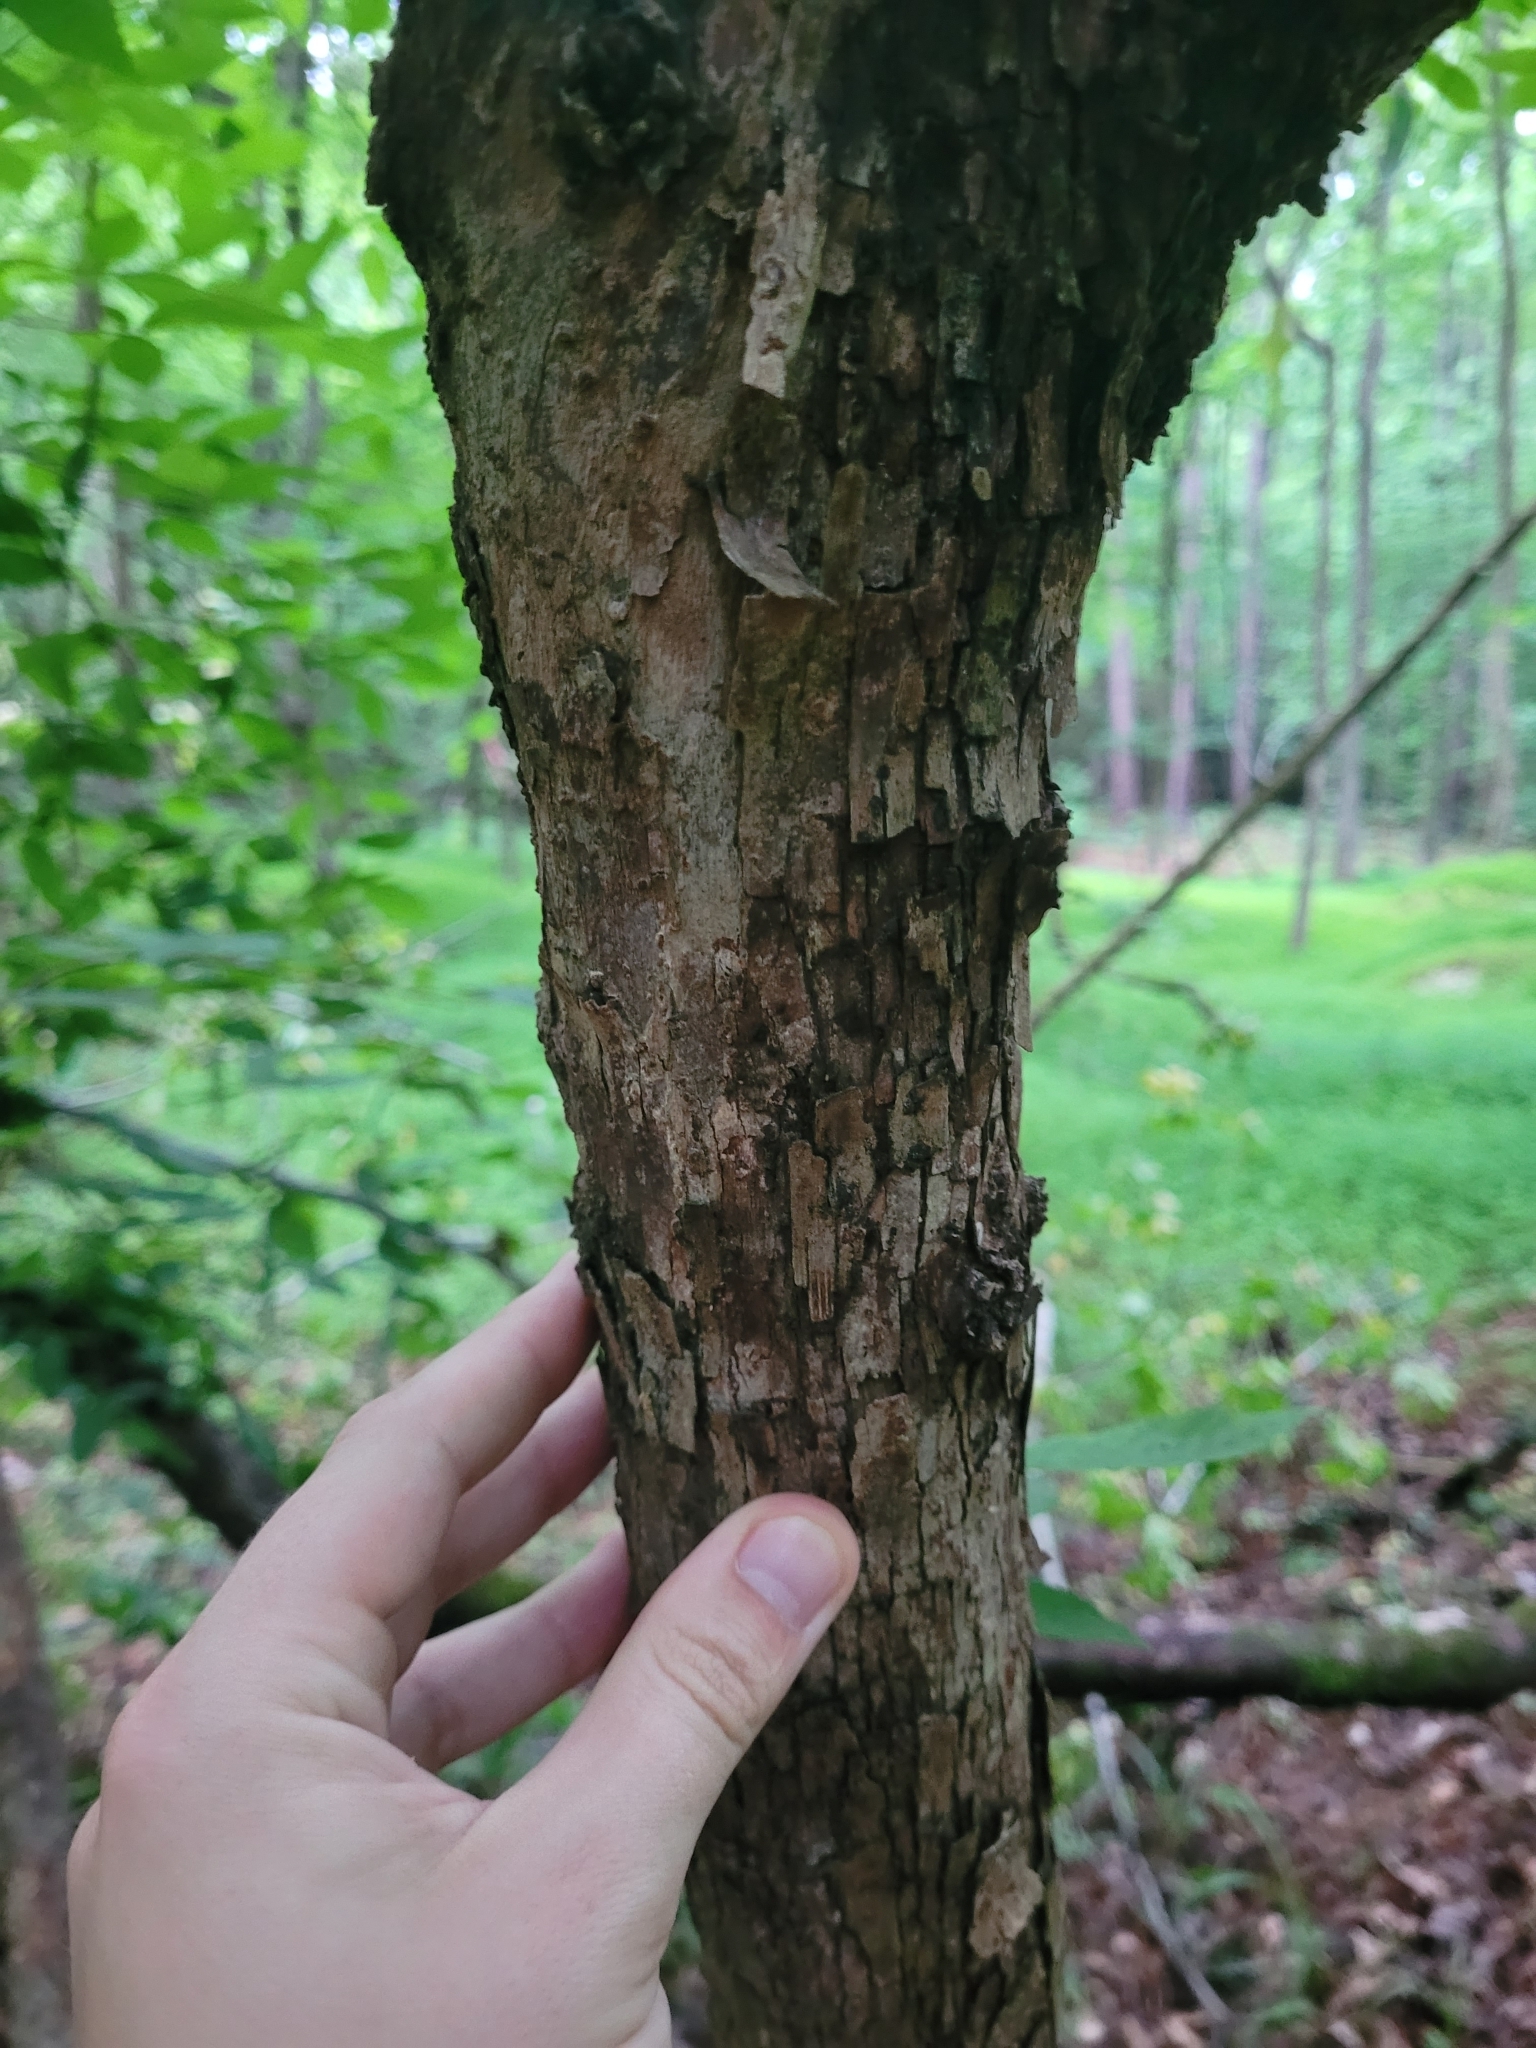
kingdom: Plantae
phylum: Tracheophyta
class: Magnoliopsida
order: Fagales
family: Betulaceae
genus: Ostrya
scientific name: Ostrya virginiana
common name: Ironwood
